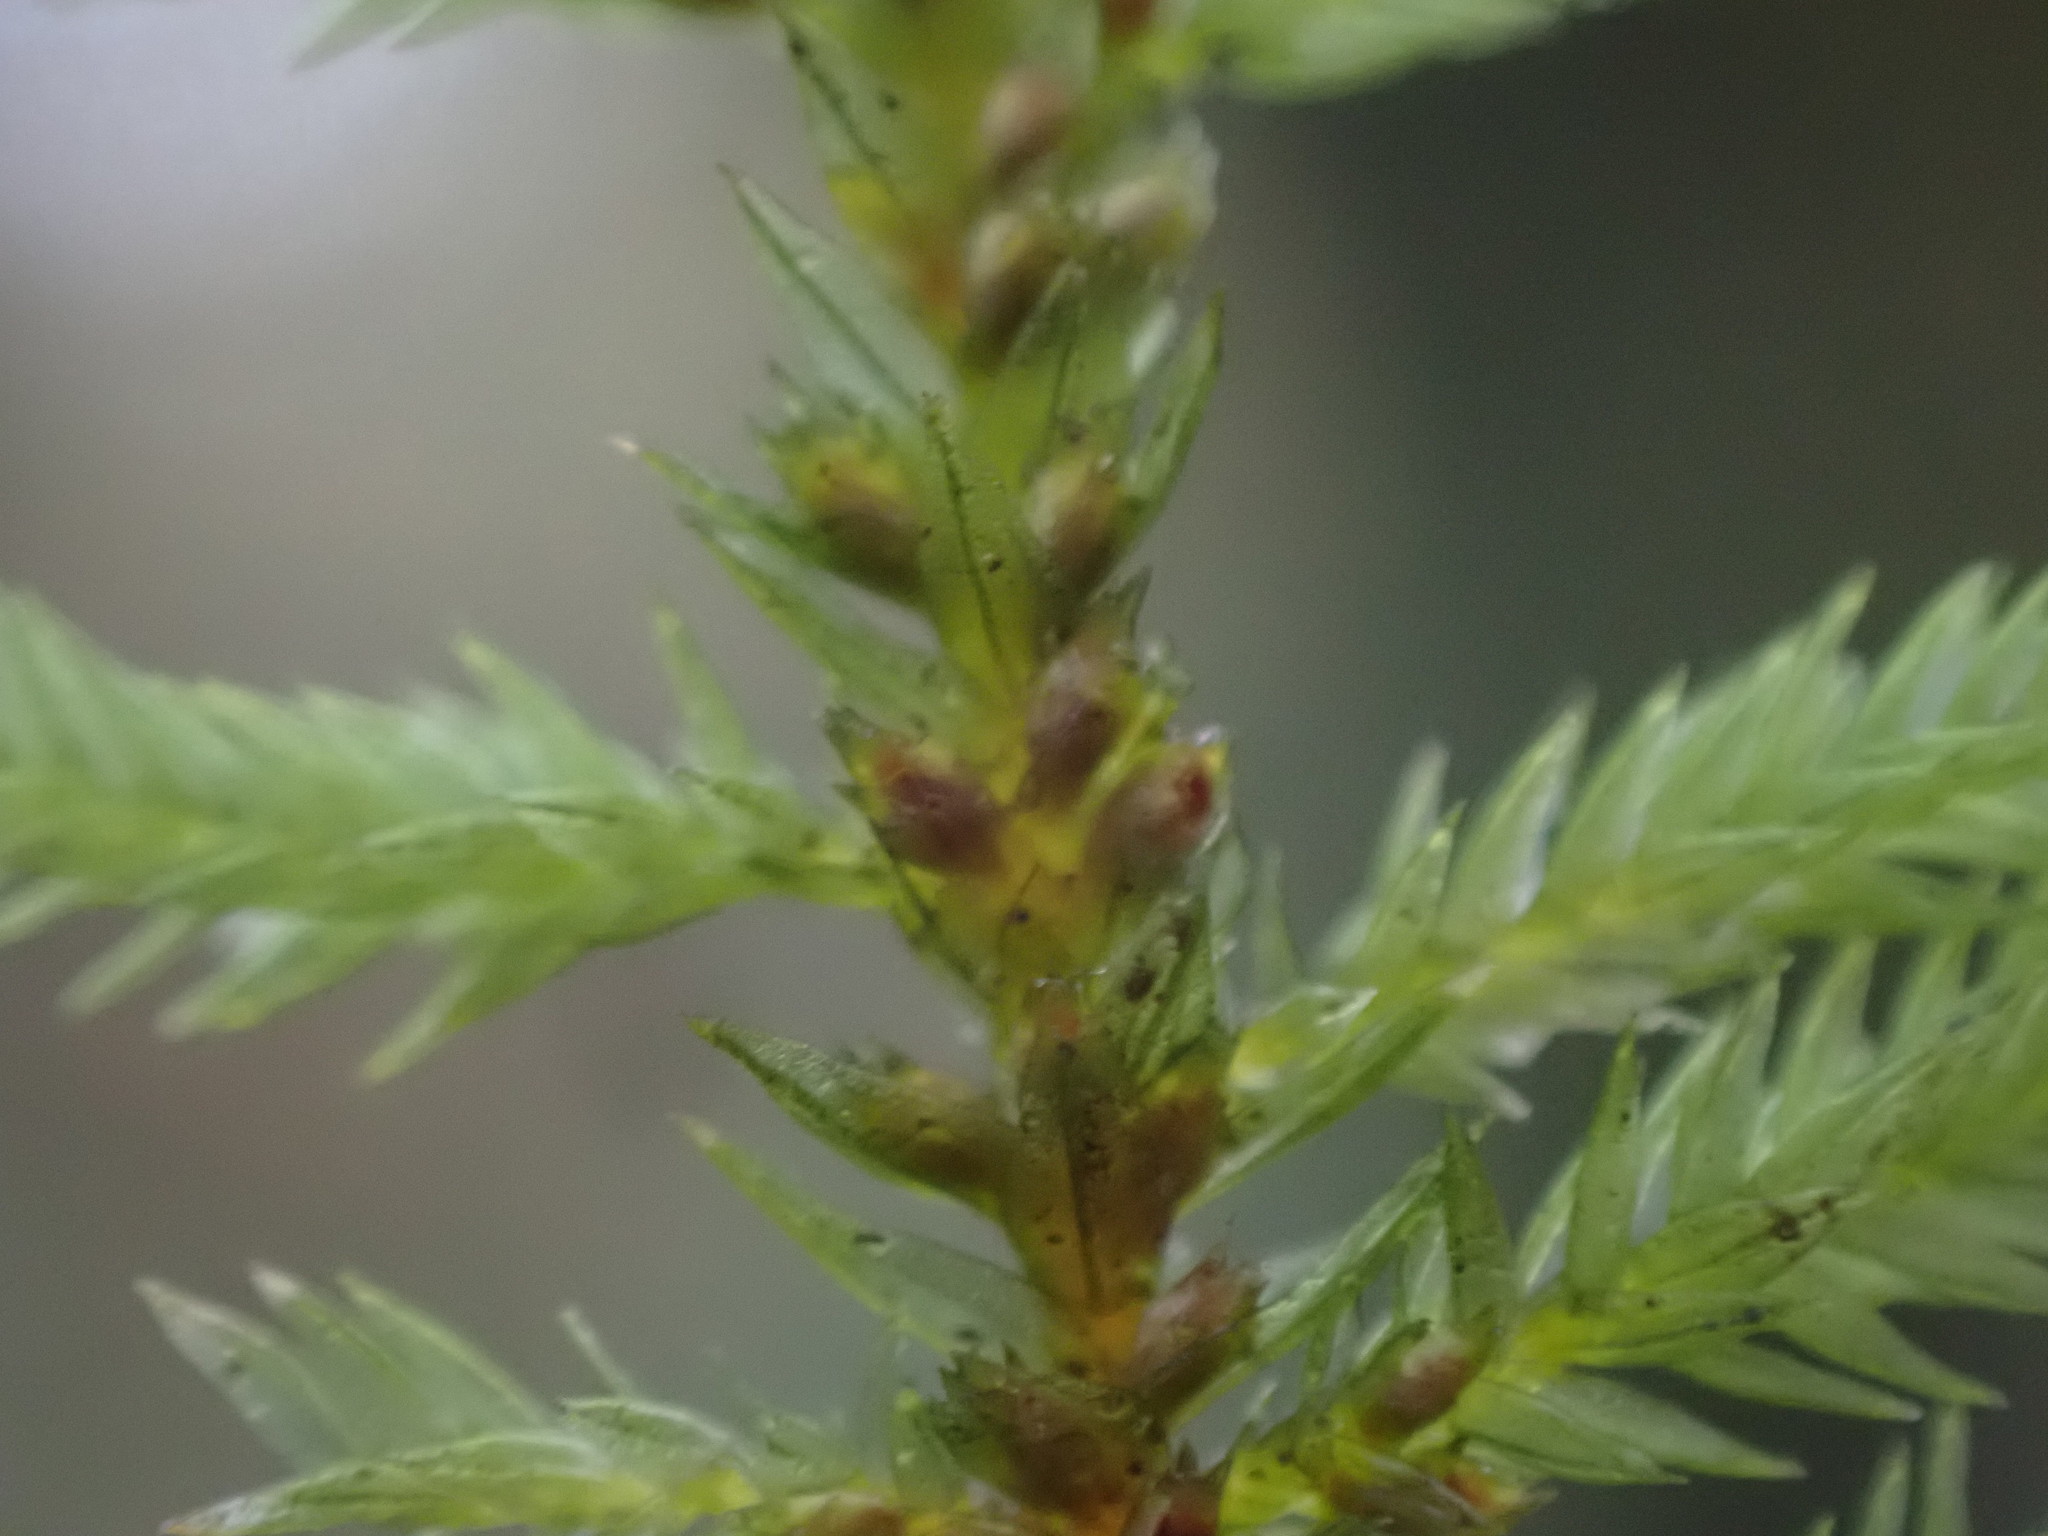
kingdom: Plantae
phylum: Bryophyta
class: Bryopsida
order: Hypnales
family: Cryphaeaceae
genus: Dendroalsia
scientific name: Dendroalsia abietina
